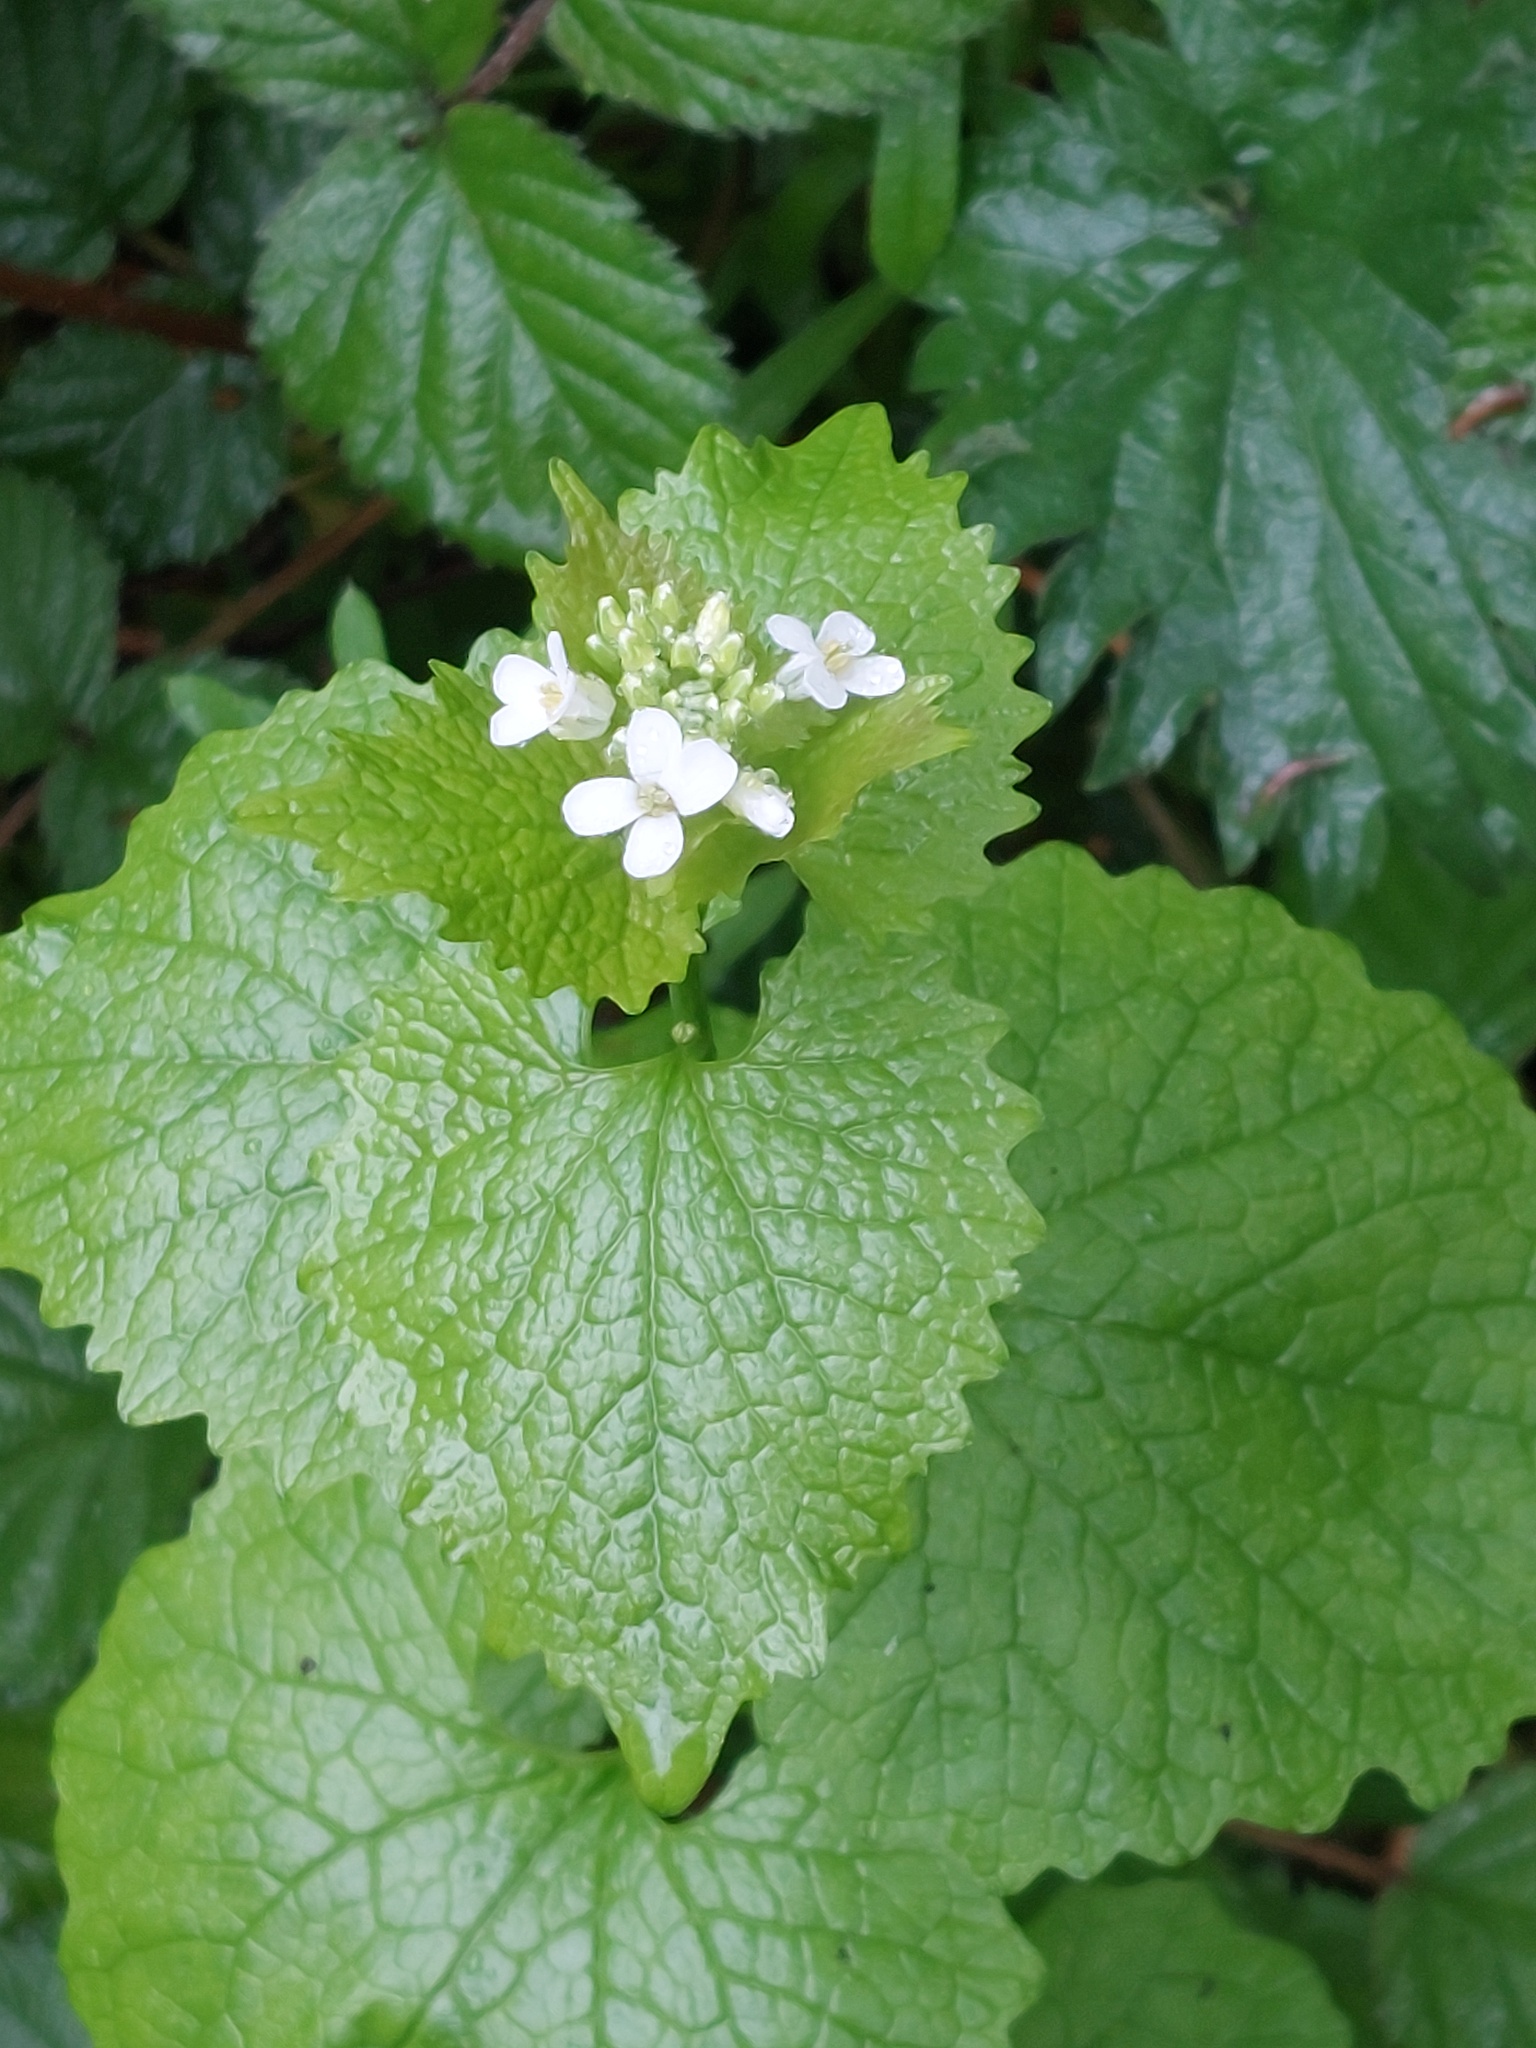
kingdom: Plantae
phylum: Tracheophyta
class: Magnoliopsida
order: Brassicales
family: Brassicaceae
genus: Alliaria
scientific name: Alliaria petiolata
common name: Garlic mustard
